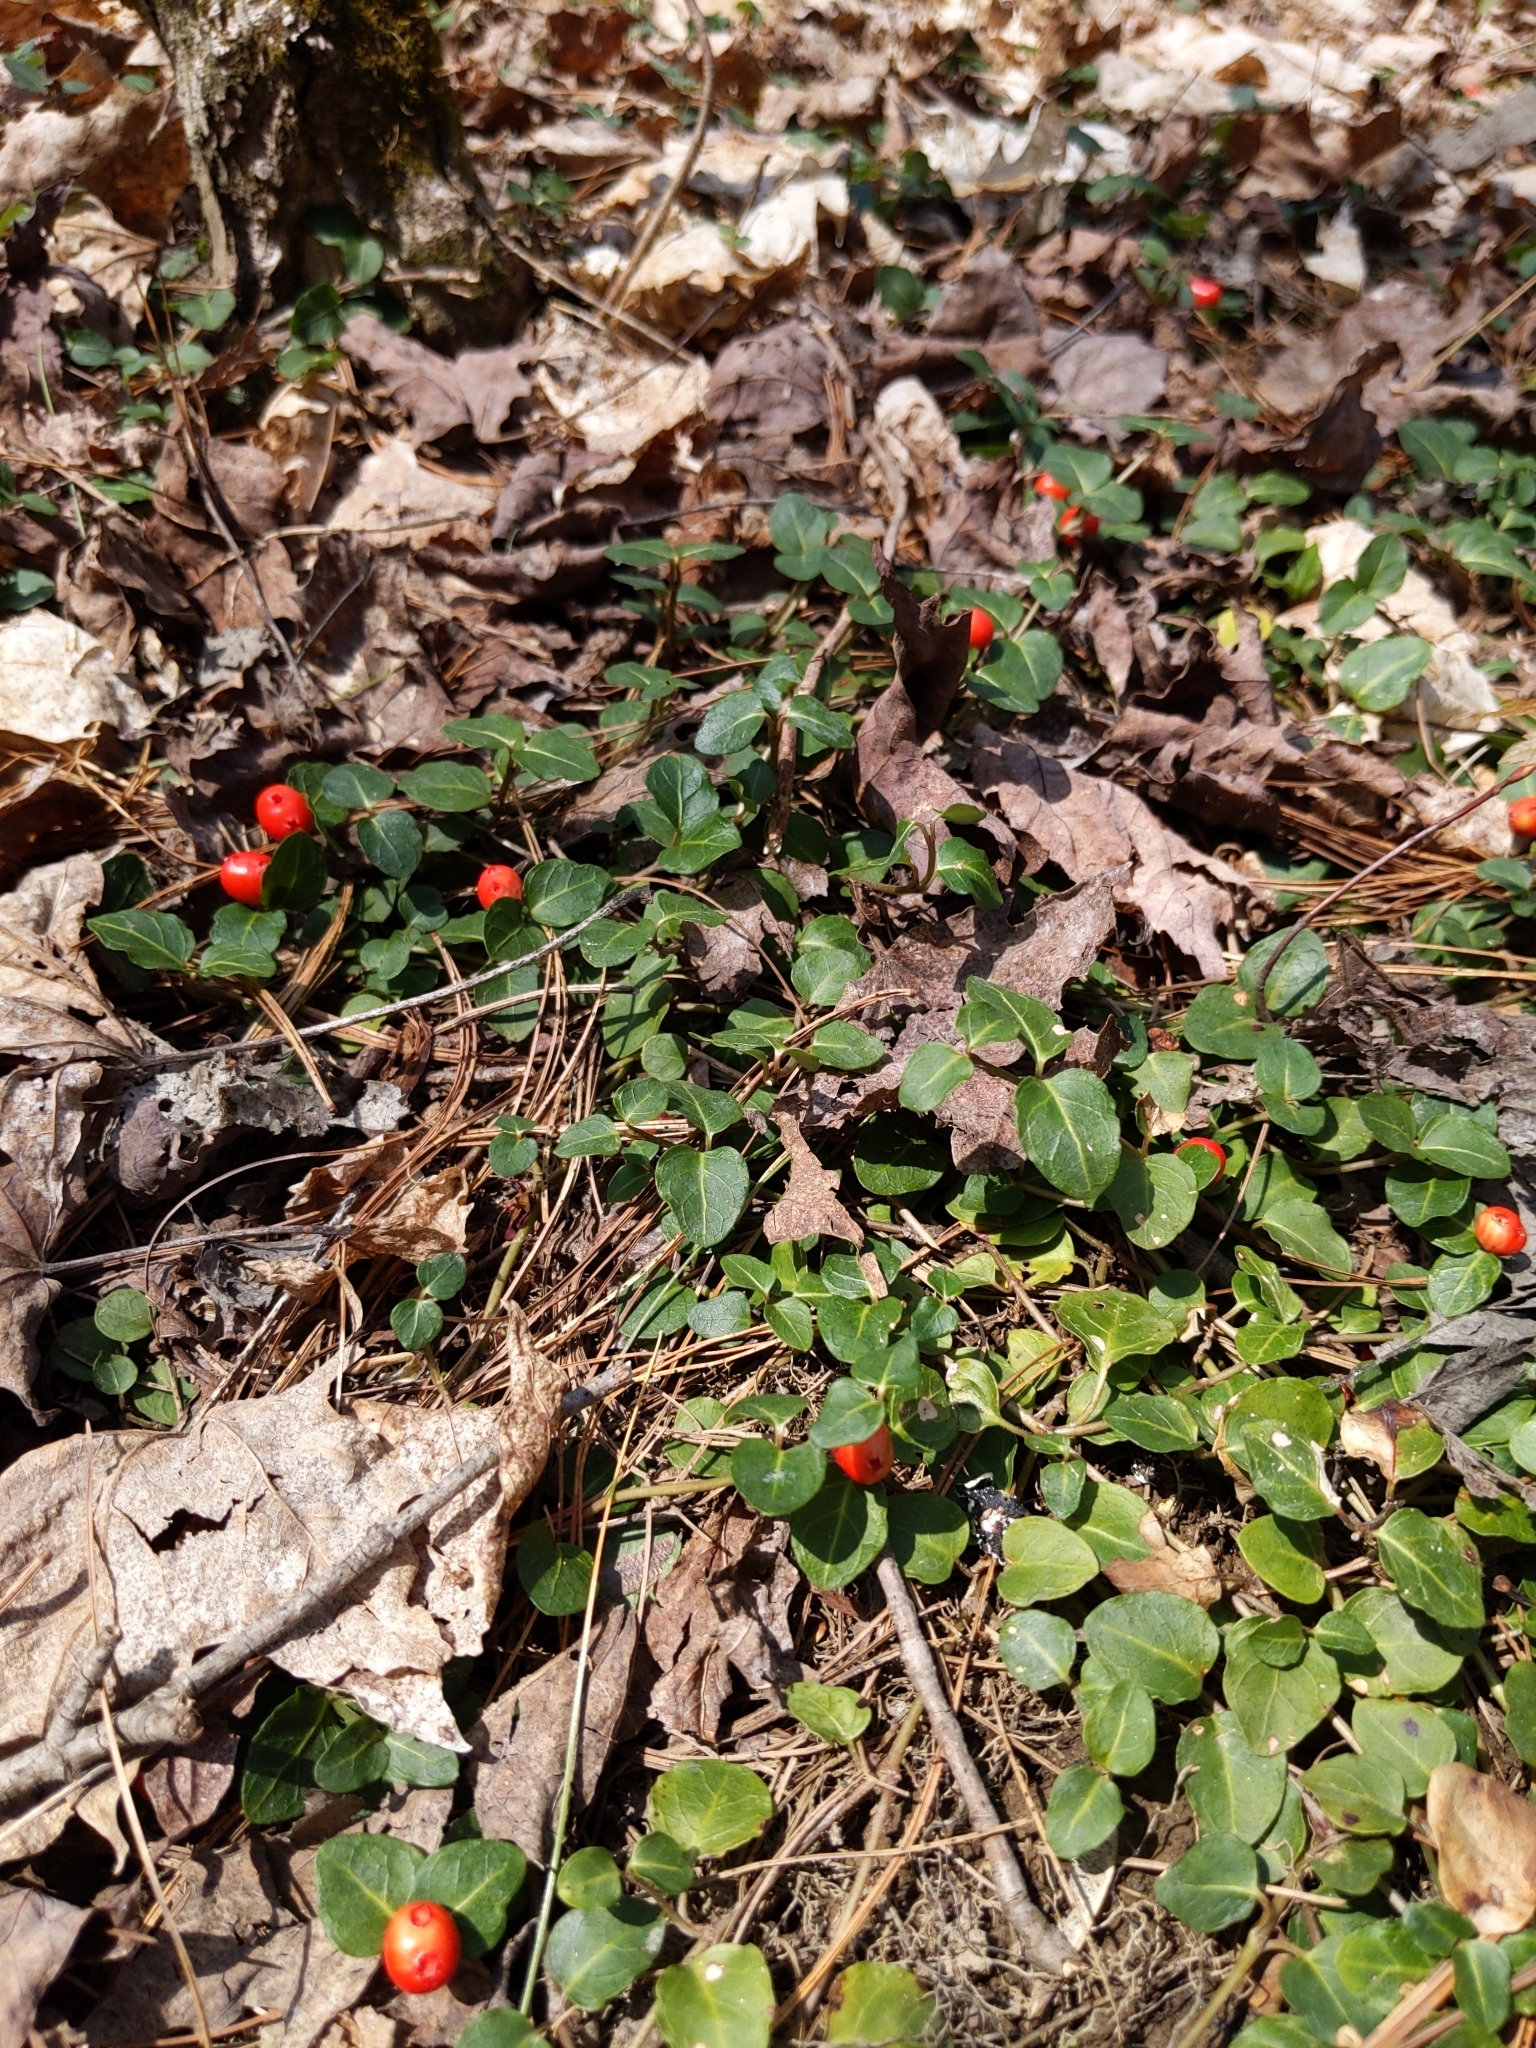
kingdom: Plantae
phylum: Tracheophyta
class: Magnoliopsida
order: Gentianales
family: Rubiaceae
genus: Mitchella
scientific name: Mitchella repens
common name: Partridge-berry
